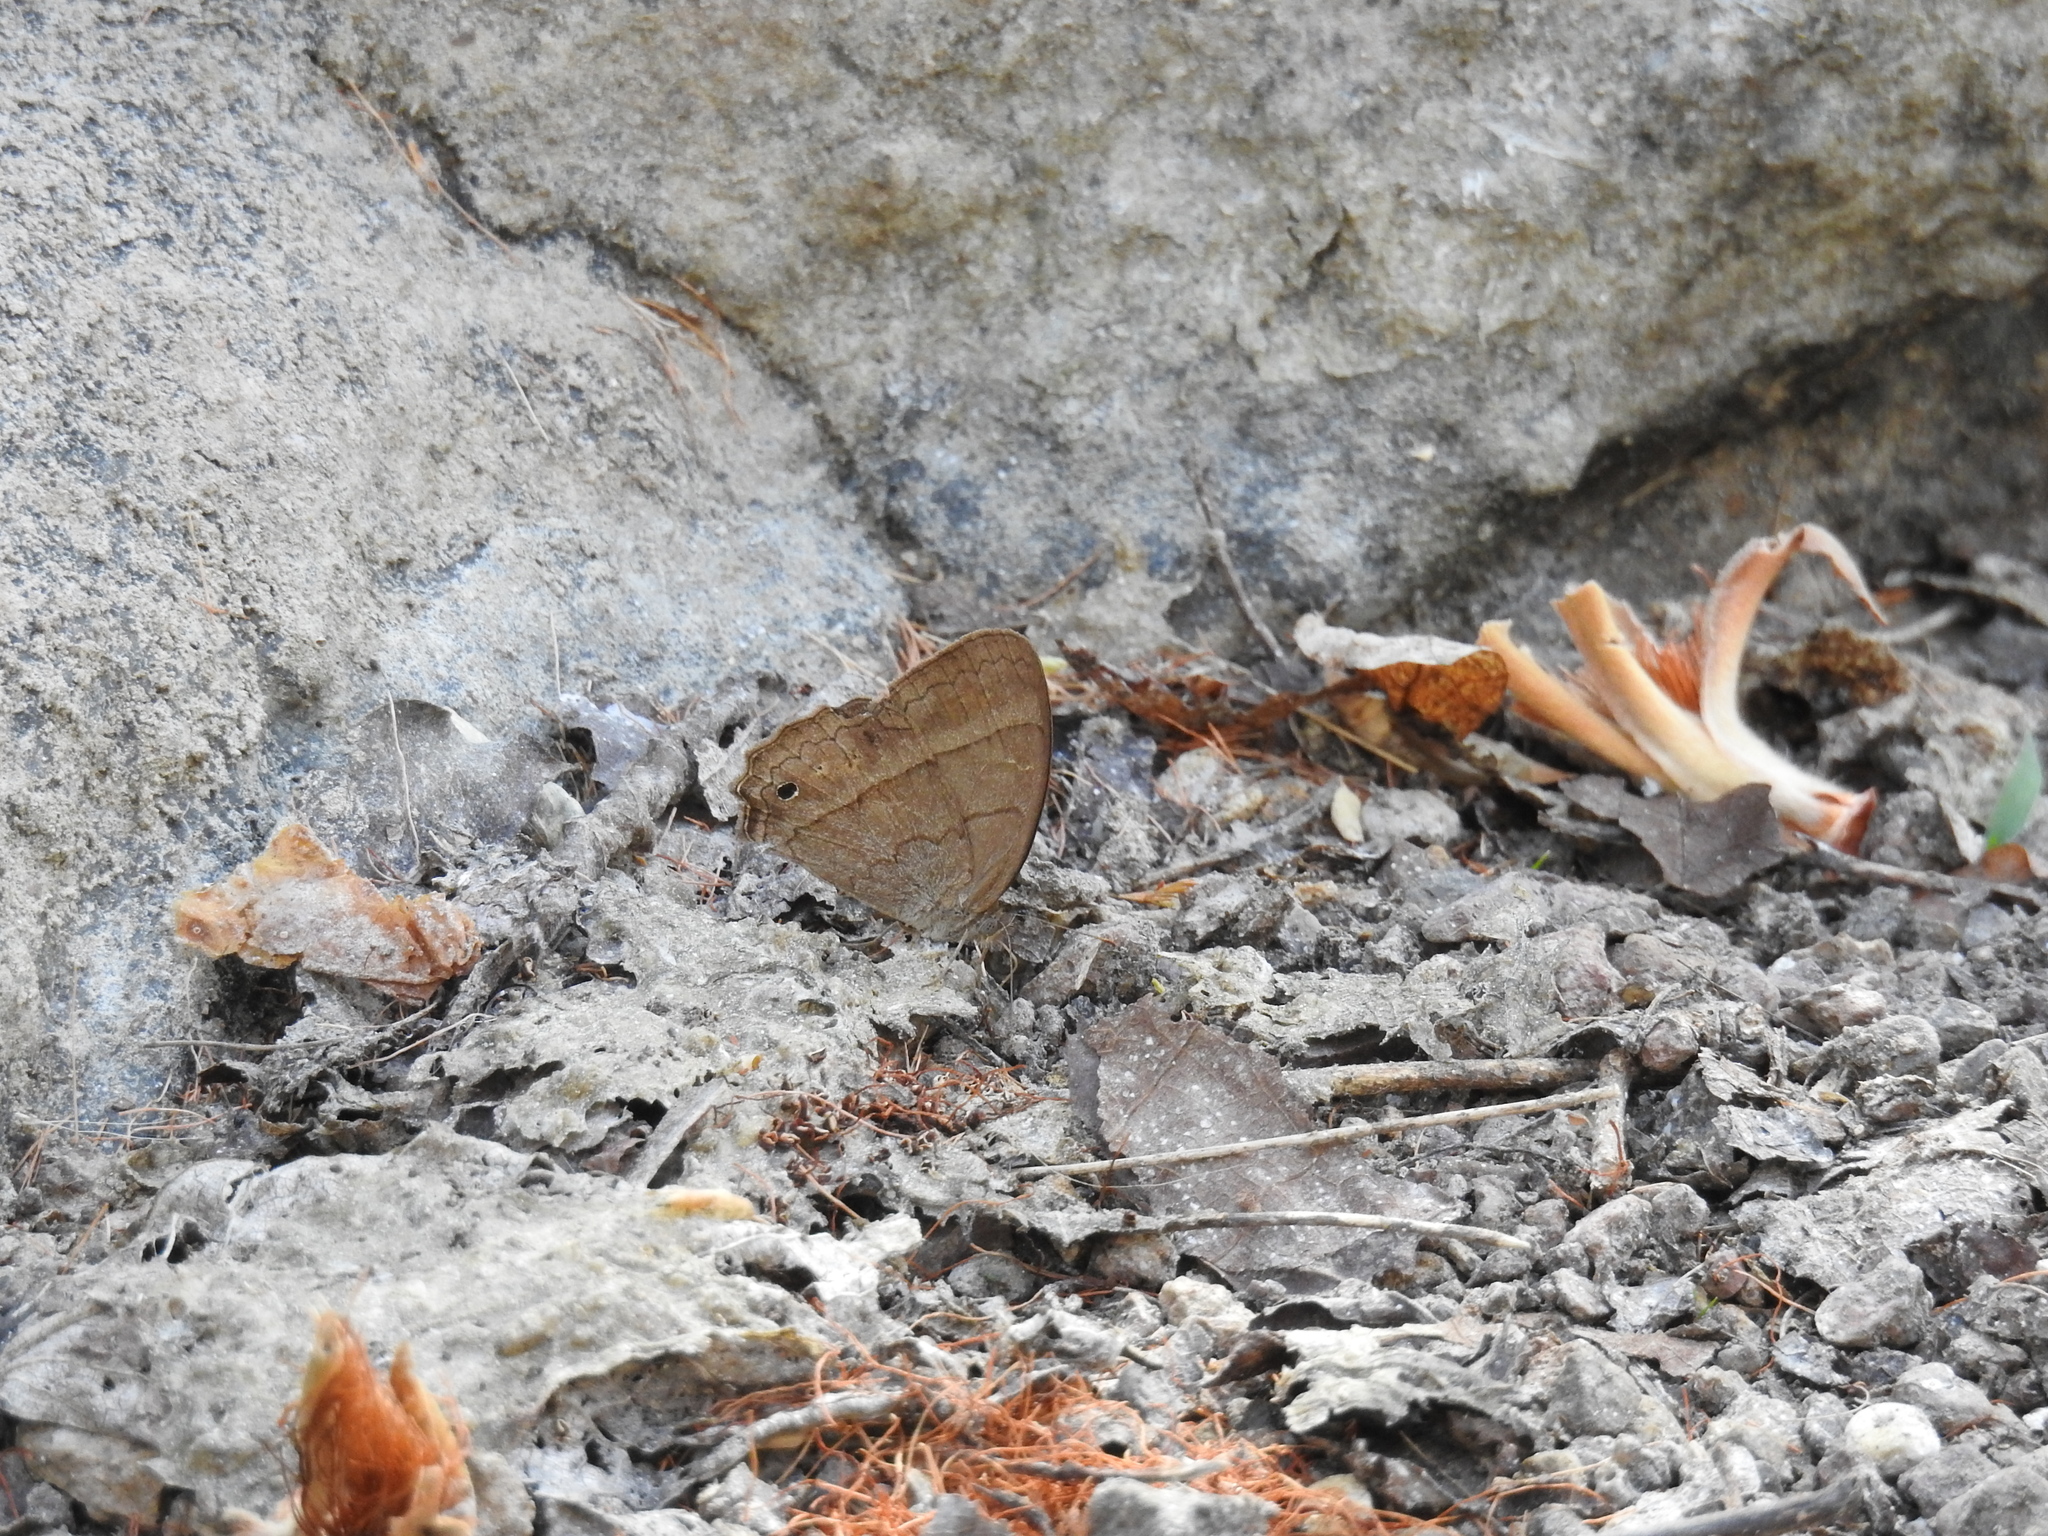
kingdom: Animalia
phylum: Arthropoda
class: Insecta
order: Lepidoptera
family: Nymphalidae
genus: Vareuptychia
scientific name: Vareuptychia similis
